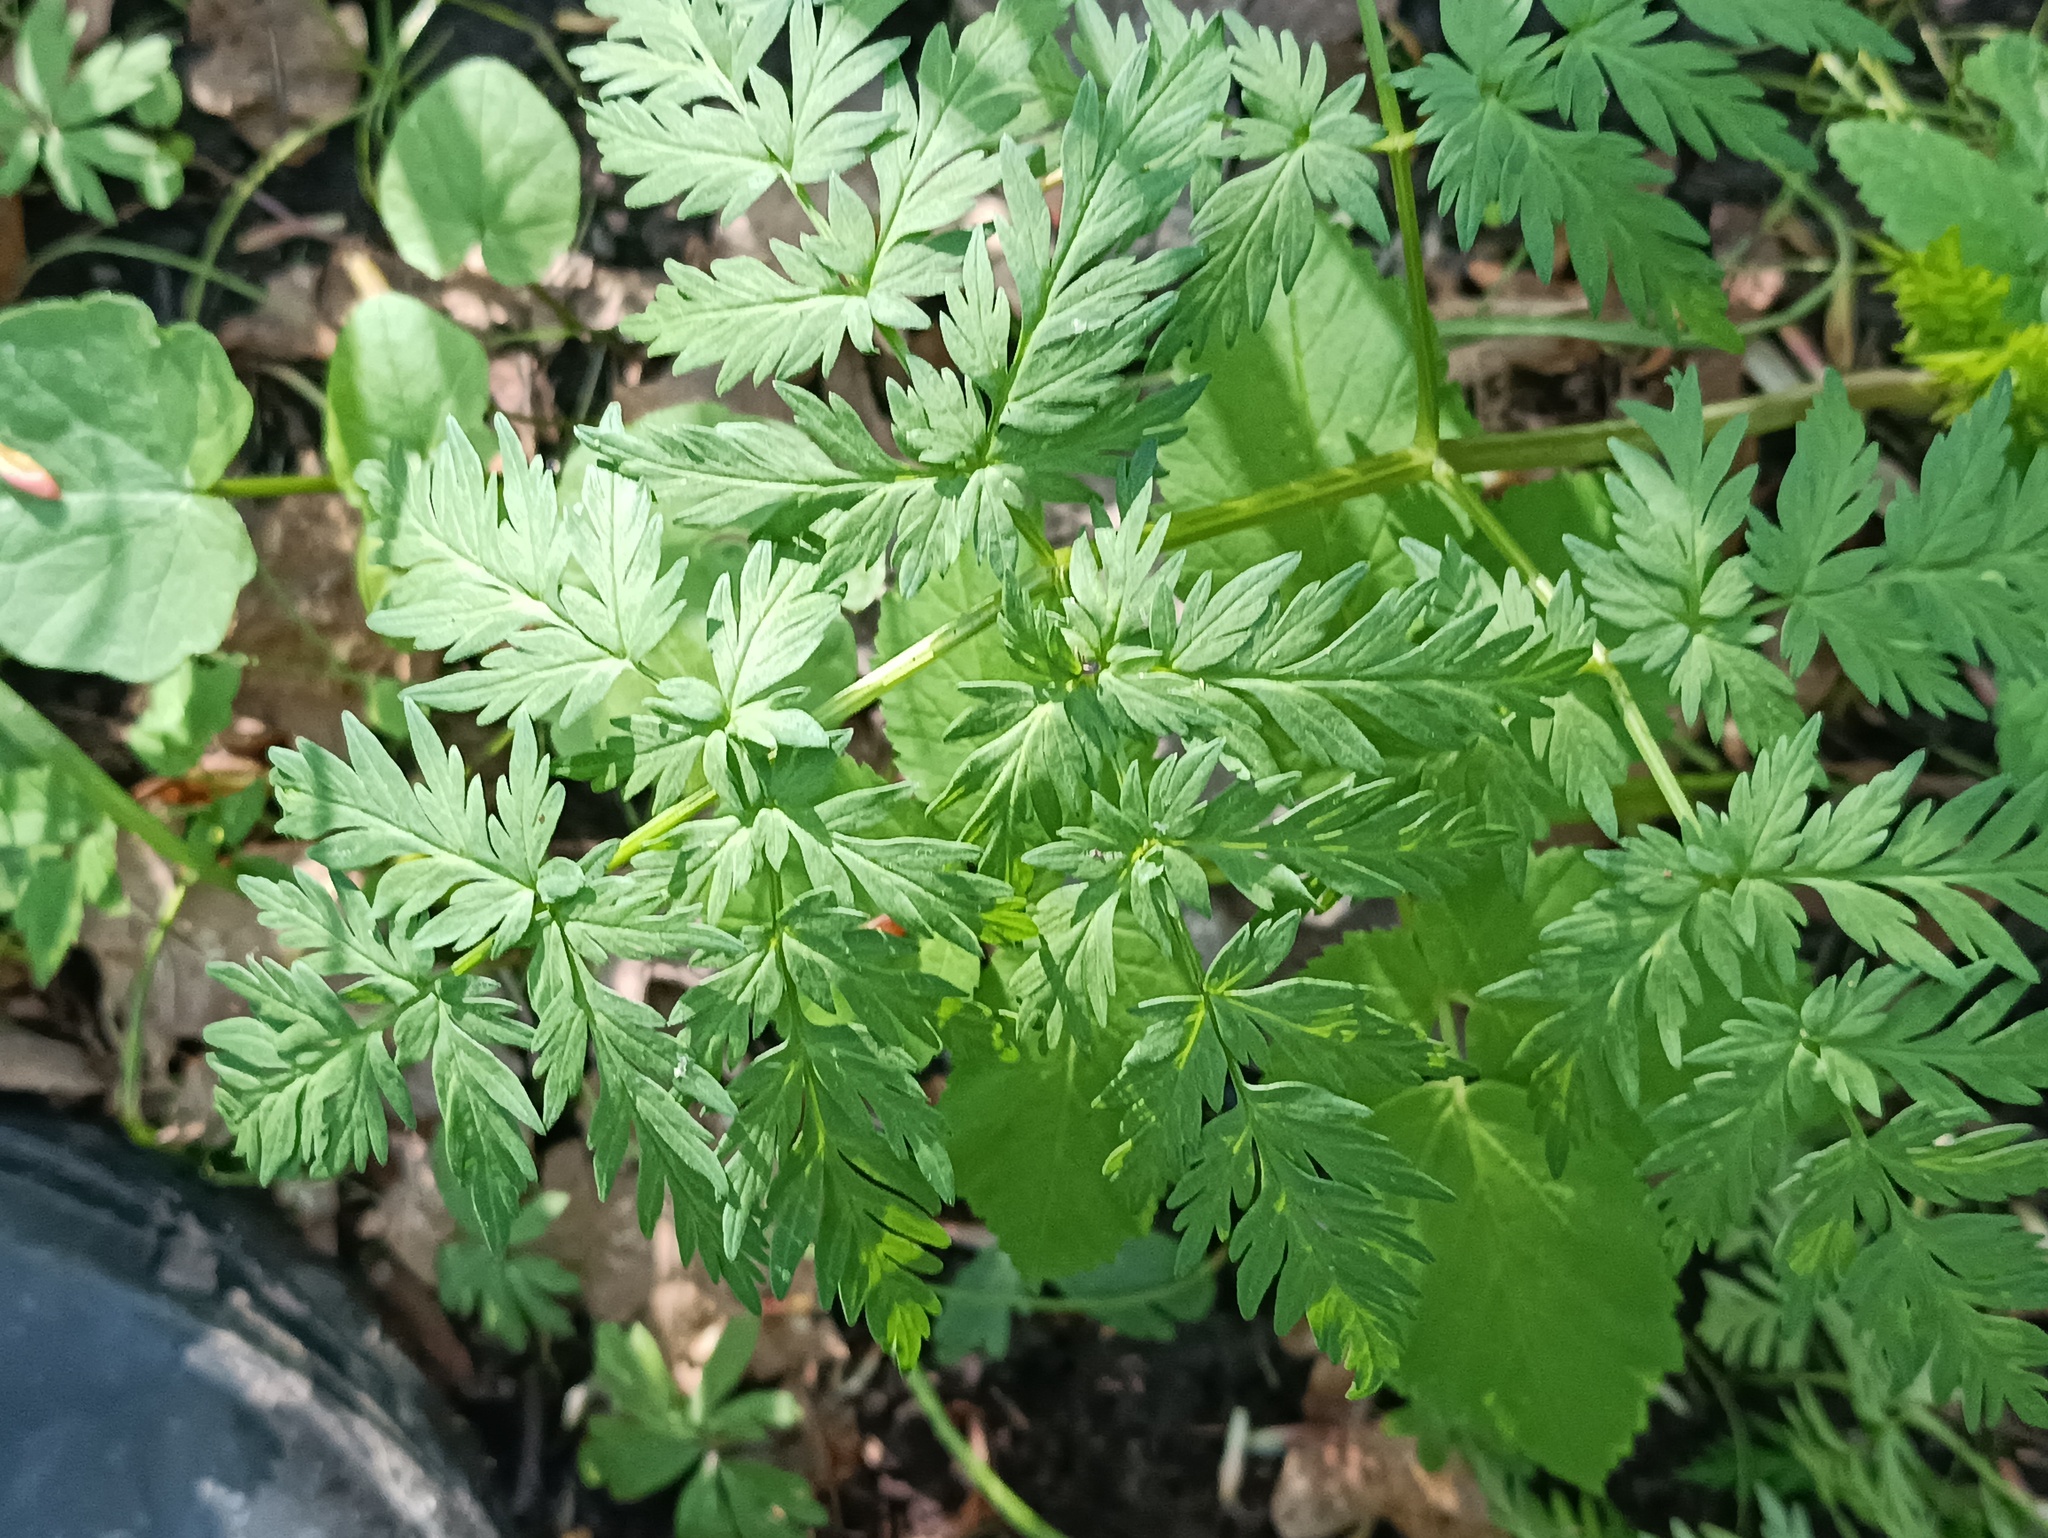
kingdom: Plantae
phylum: Tracheophyta
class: Magnoliopsida
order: Apiales
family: Apiaceae
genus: Anthriscus
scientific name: Anthriscus sylvestris
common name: Cow parsley
